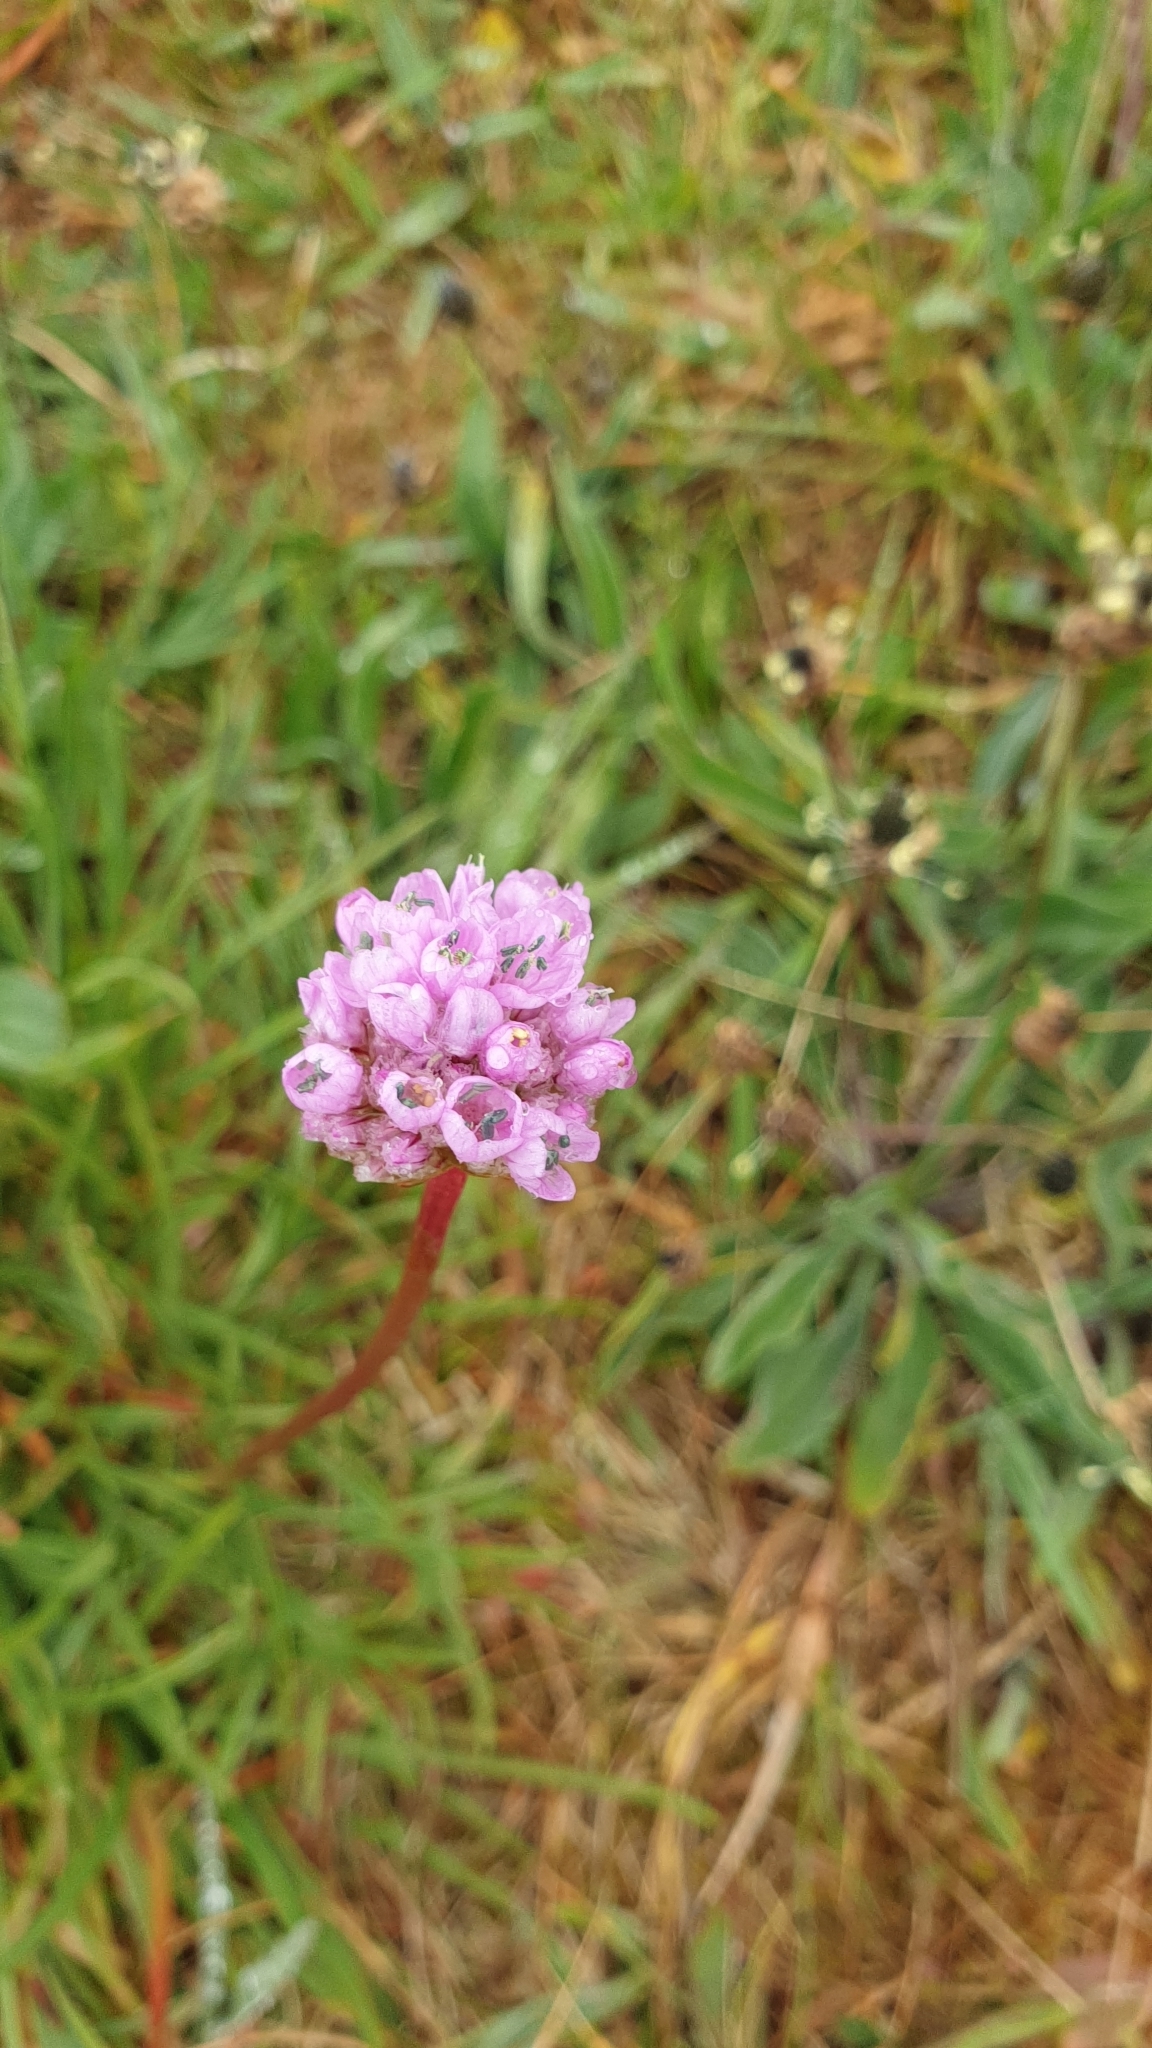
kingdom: Plantae
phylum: Tracheophyta
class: Magnoliopsida
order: Caryophyllales
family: Plumbaginaceae
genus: Armeria
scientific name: Armeria maritima
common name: Thrift
